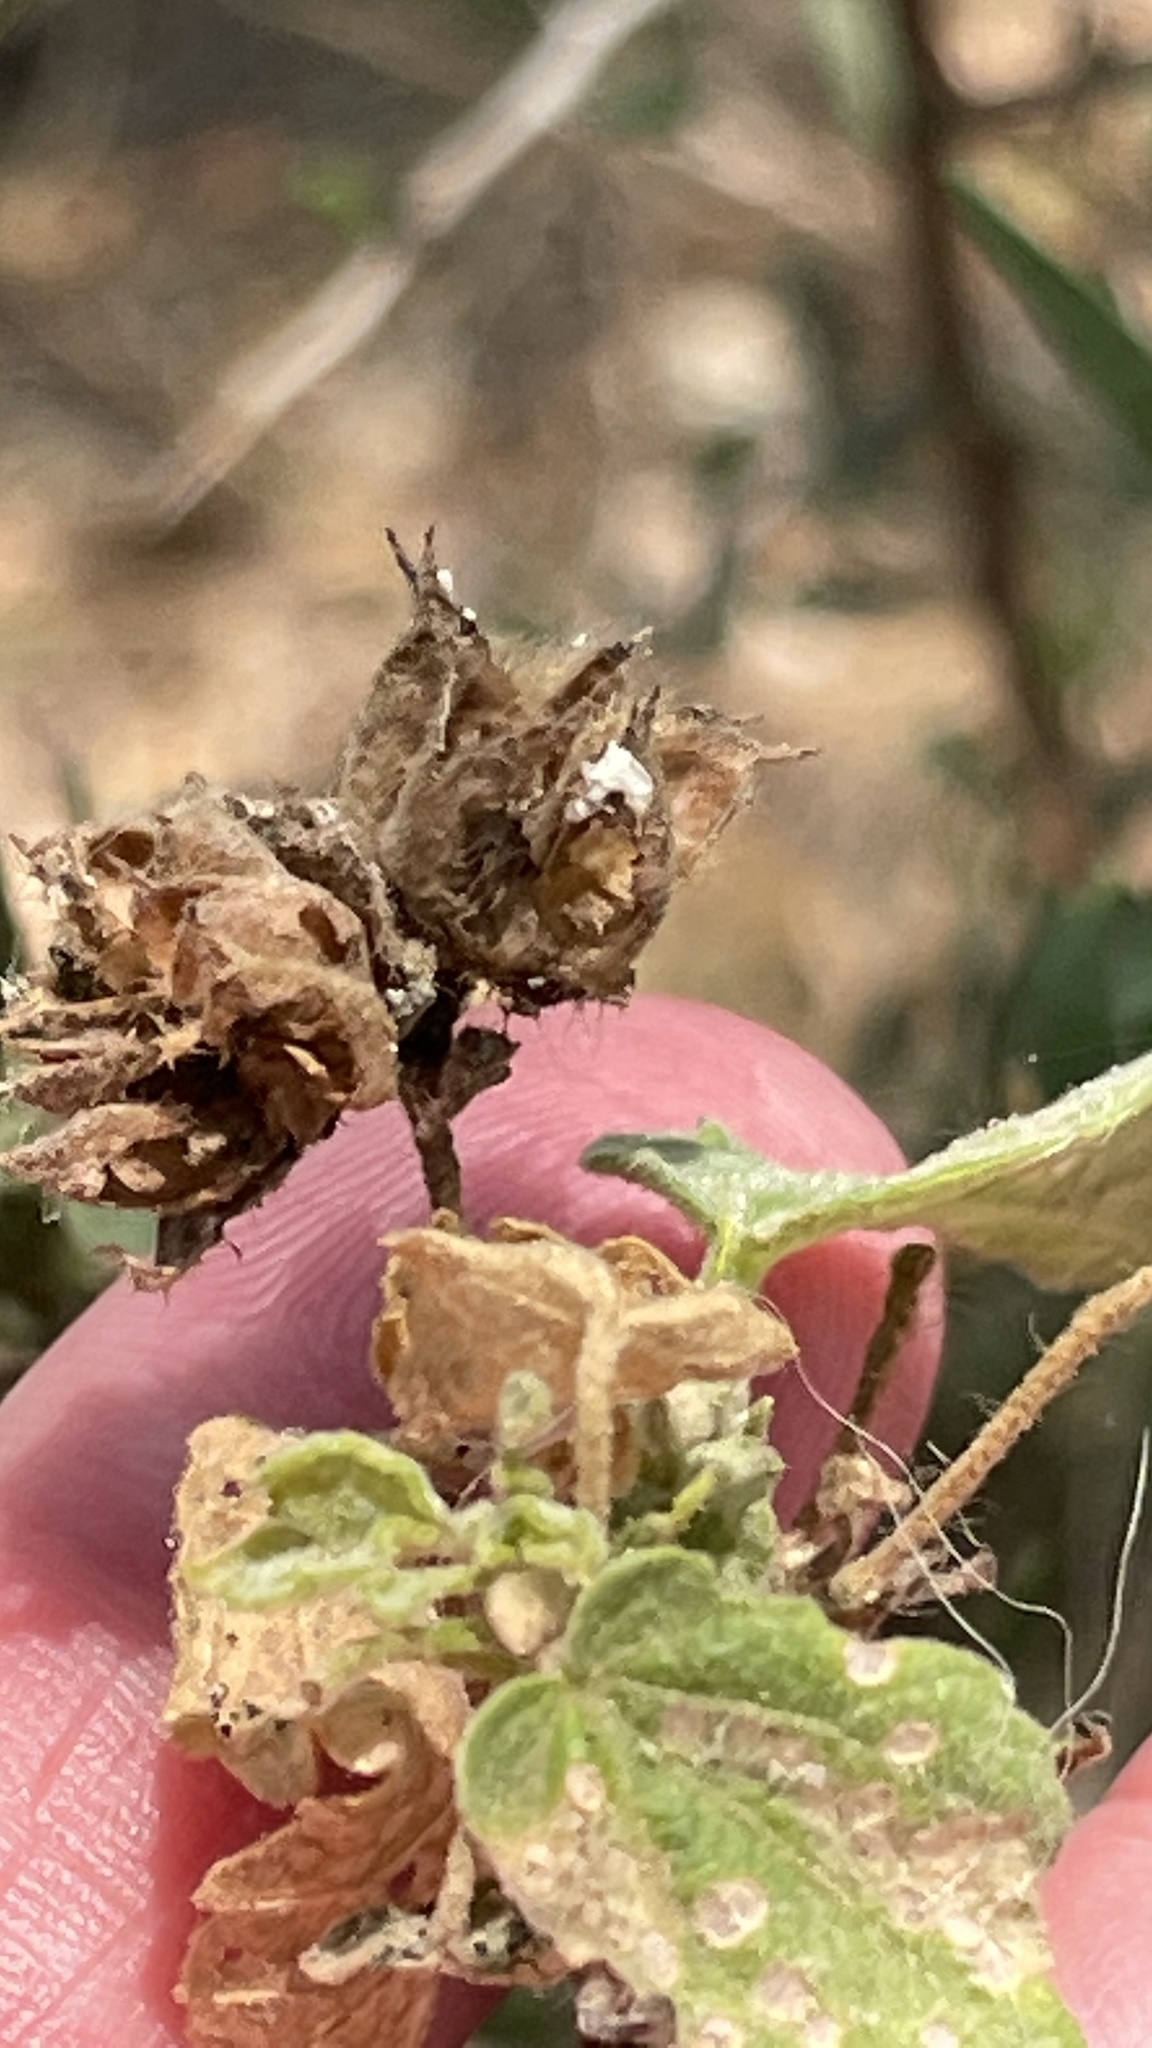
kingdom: Plantae
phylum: Tracheophyta
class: Magnoliopsida
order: Malvales
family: Malvaceae
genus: Abutilon
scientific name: Abutilon viscosum
